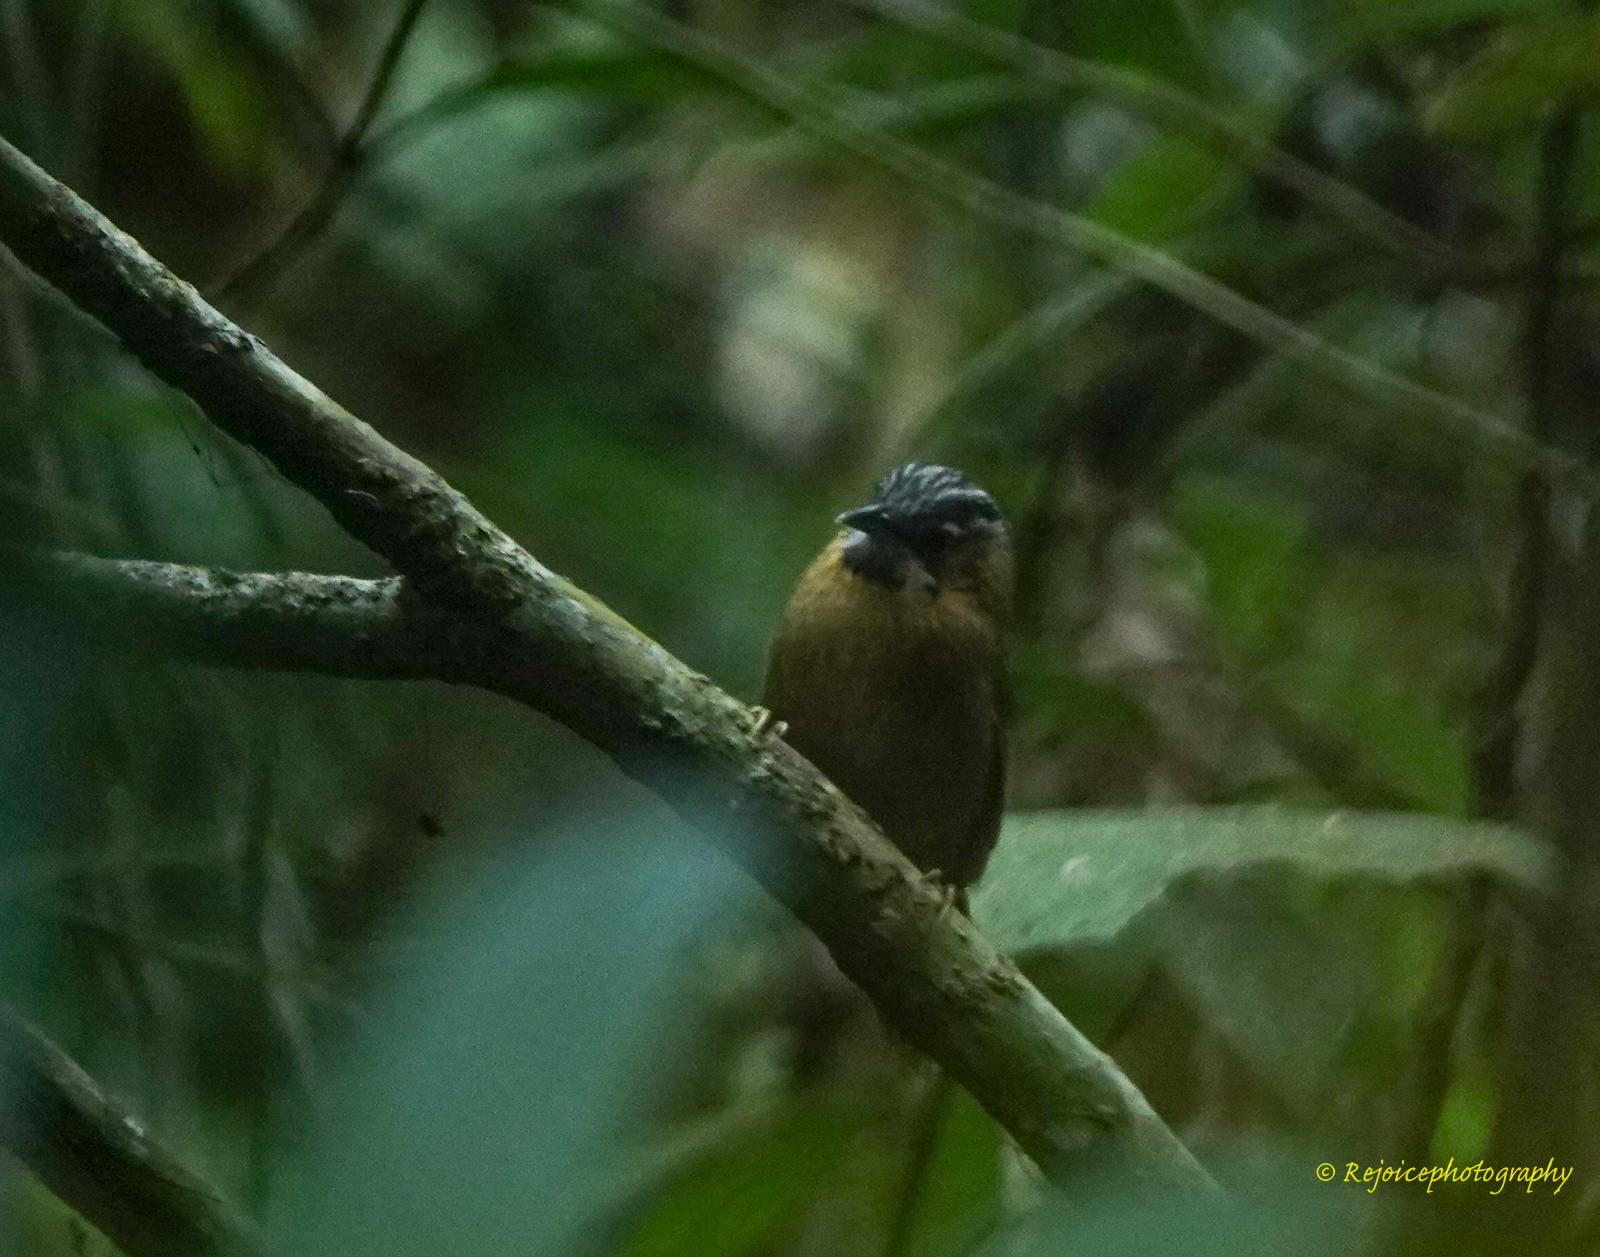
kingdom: Animalia
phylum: Chordata
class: Aves
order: Passeriformes
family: Timaliidae
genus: Stachyris
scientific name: Stachyris nigriceps
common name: Grey-throated babbler
